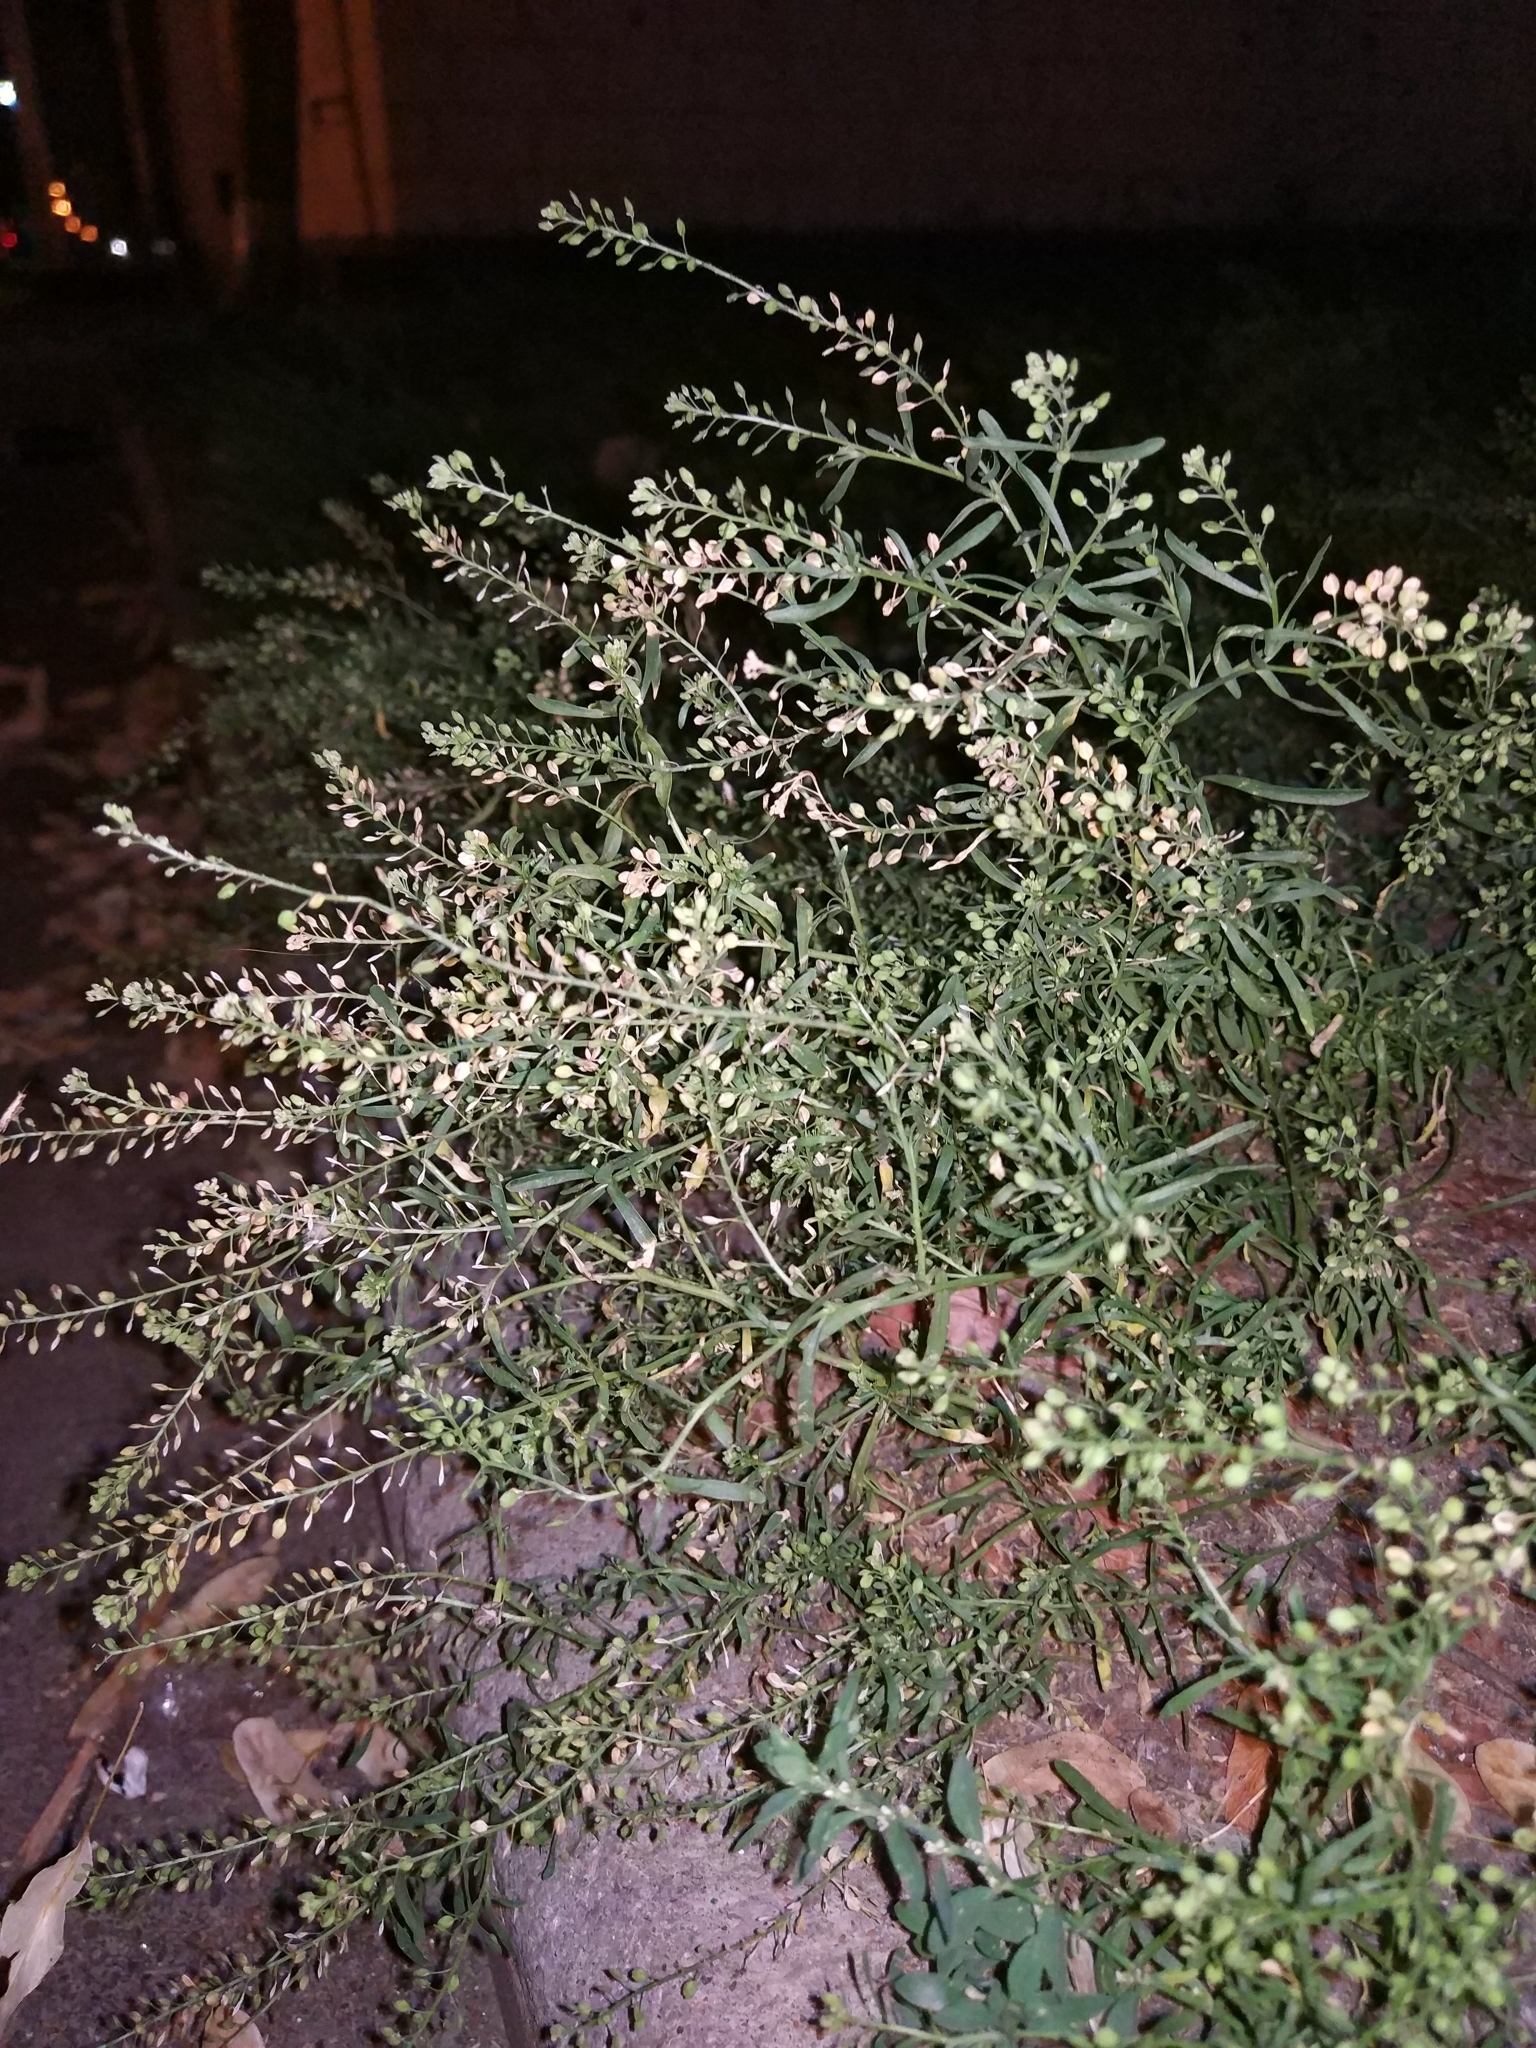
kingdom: Plantae
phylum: Tracheophyta
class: Magnoliopsida
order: Brassicales
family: Brassicaceae
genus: Lepidium
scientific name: Lepidium ruderale
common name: Narrow-leaved pepperwort
